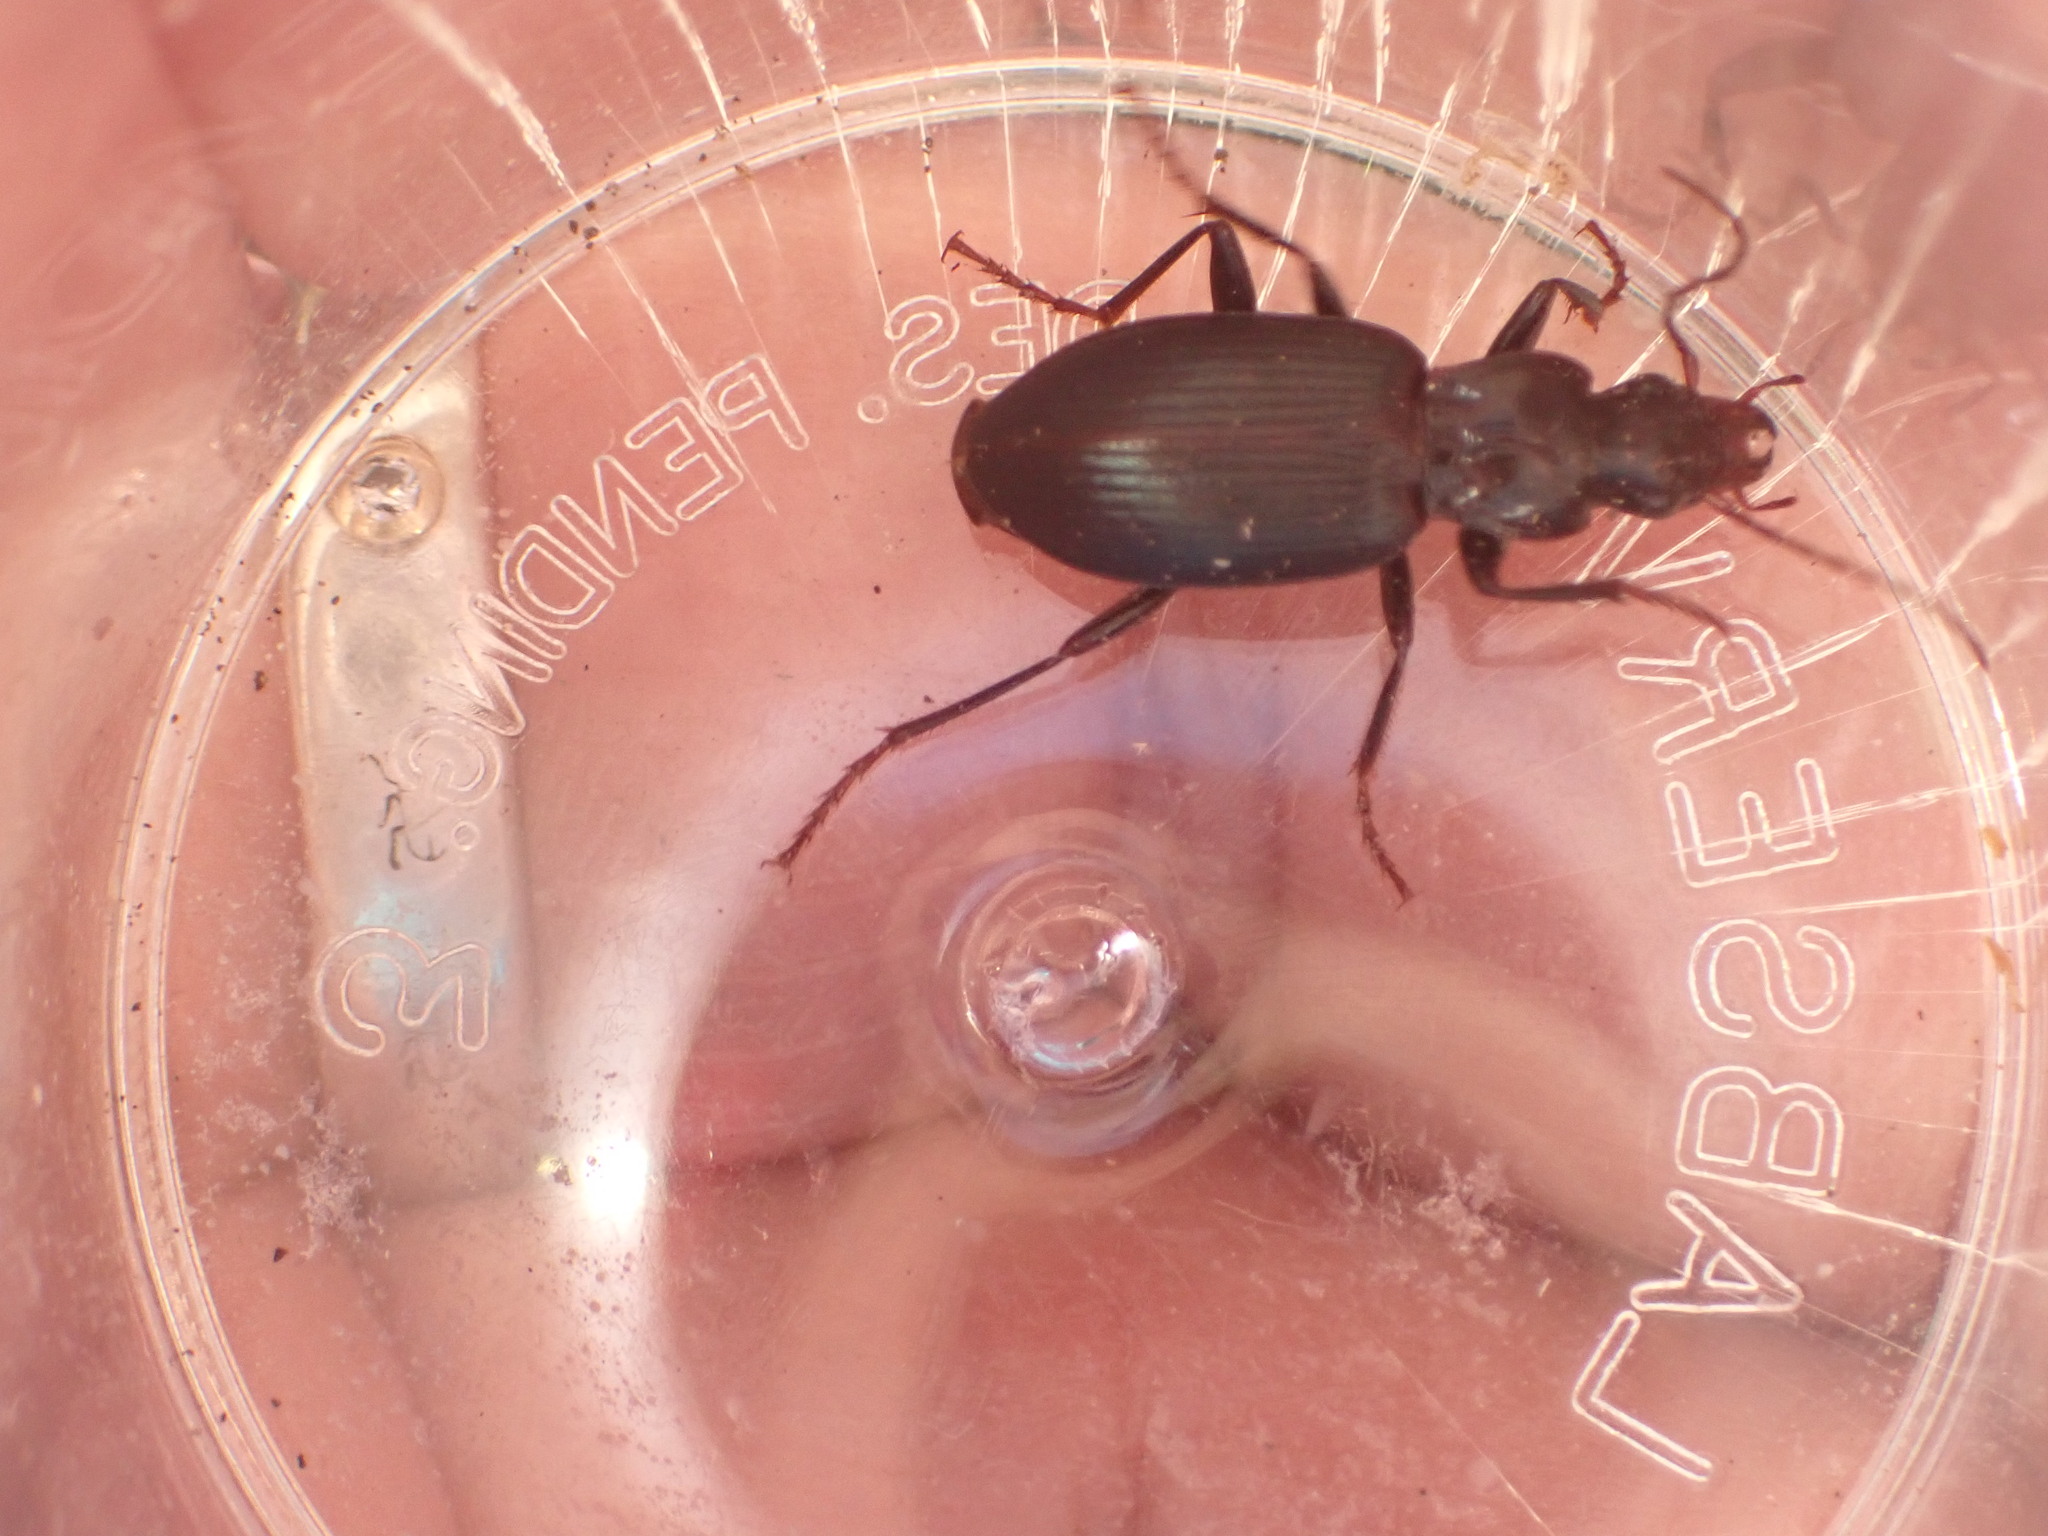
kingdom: Animalia
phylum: Arthropoda
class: Insecta
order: Coleoptera
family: Carabidae
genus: Laemostenus
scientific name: Laemostenus complanatus
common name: Cosmopolitan ground beetle
